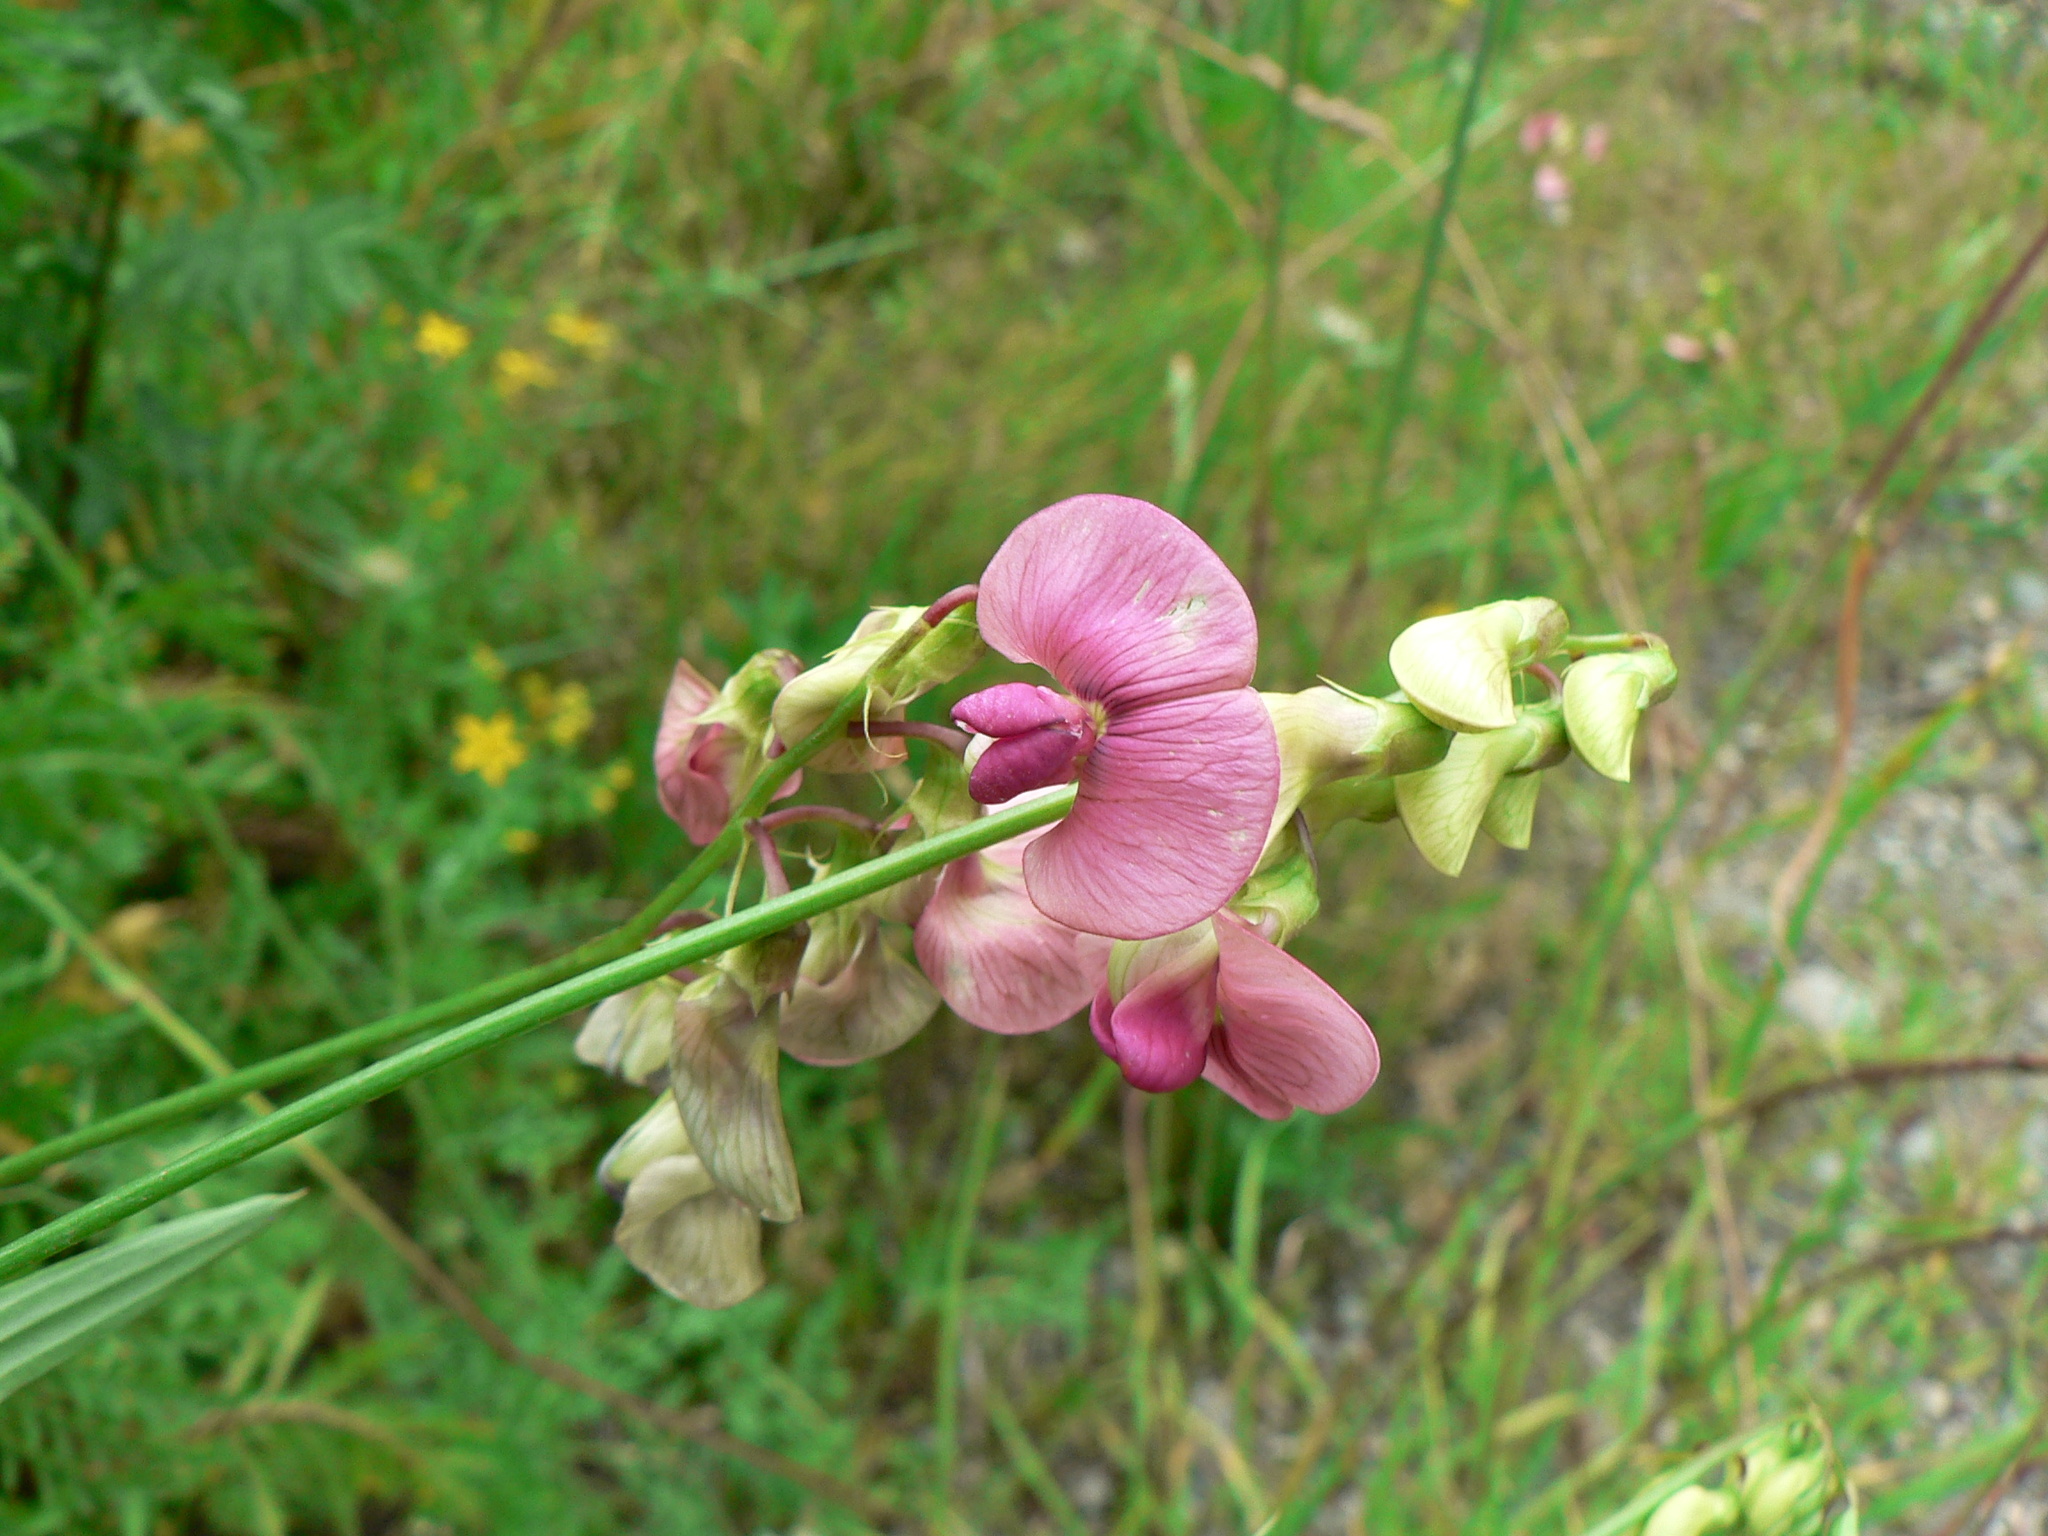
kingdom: Plantae
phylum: Tracheophyta
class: Magnoliopsida
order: Fabales
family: Fabaceae
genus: Lathyrus
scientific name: Lathyrus sylvestris
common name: Flat pea
